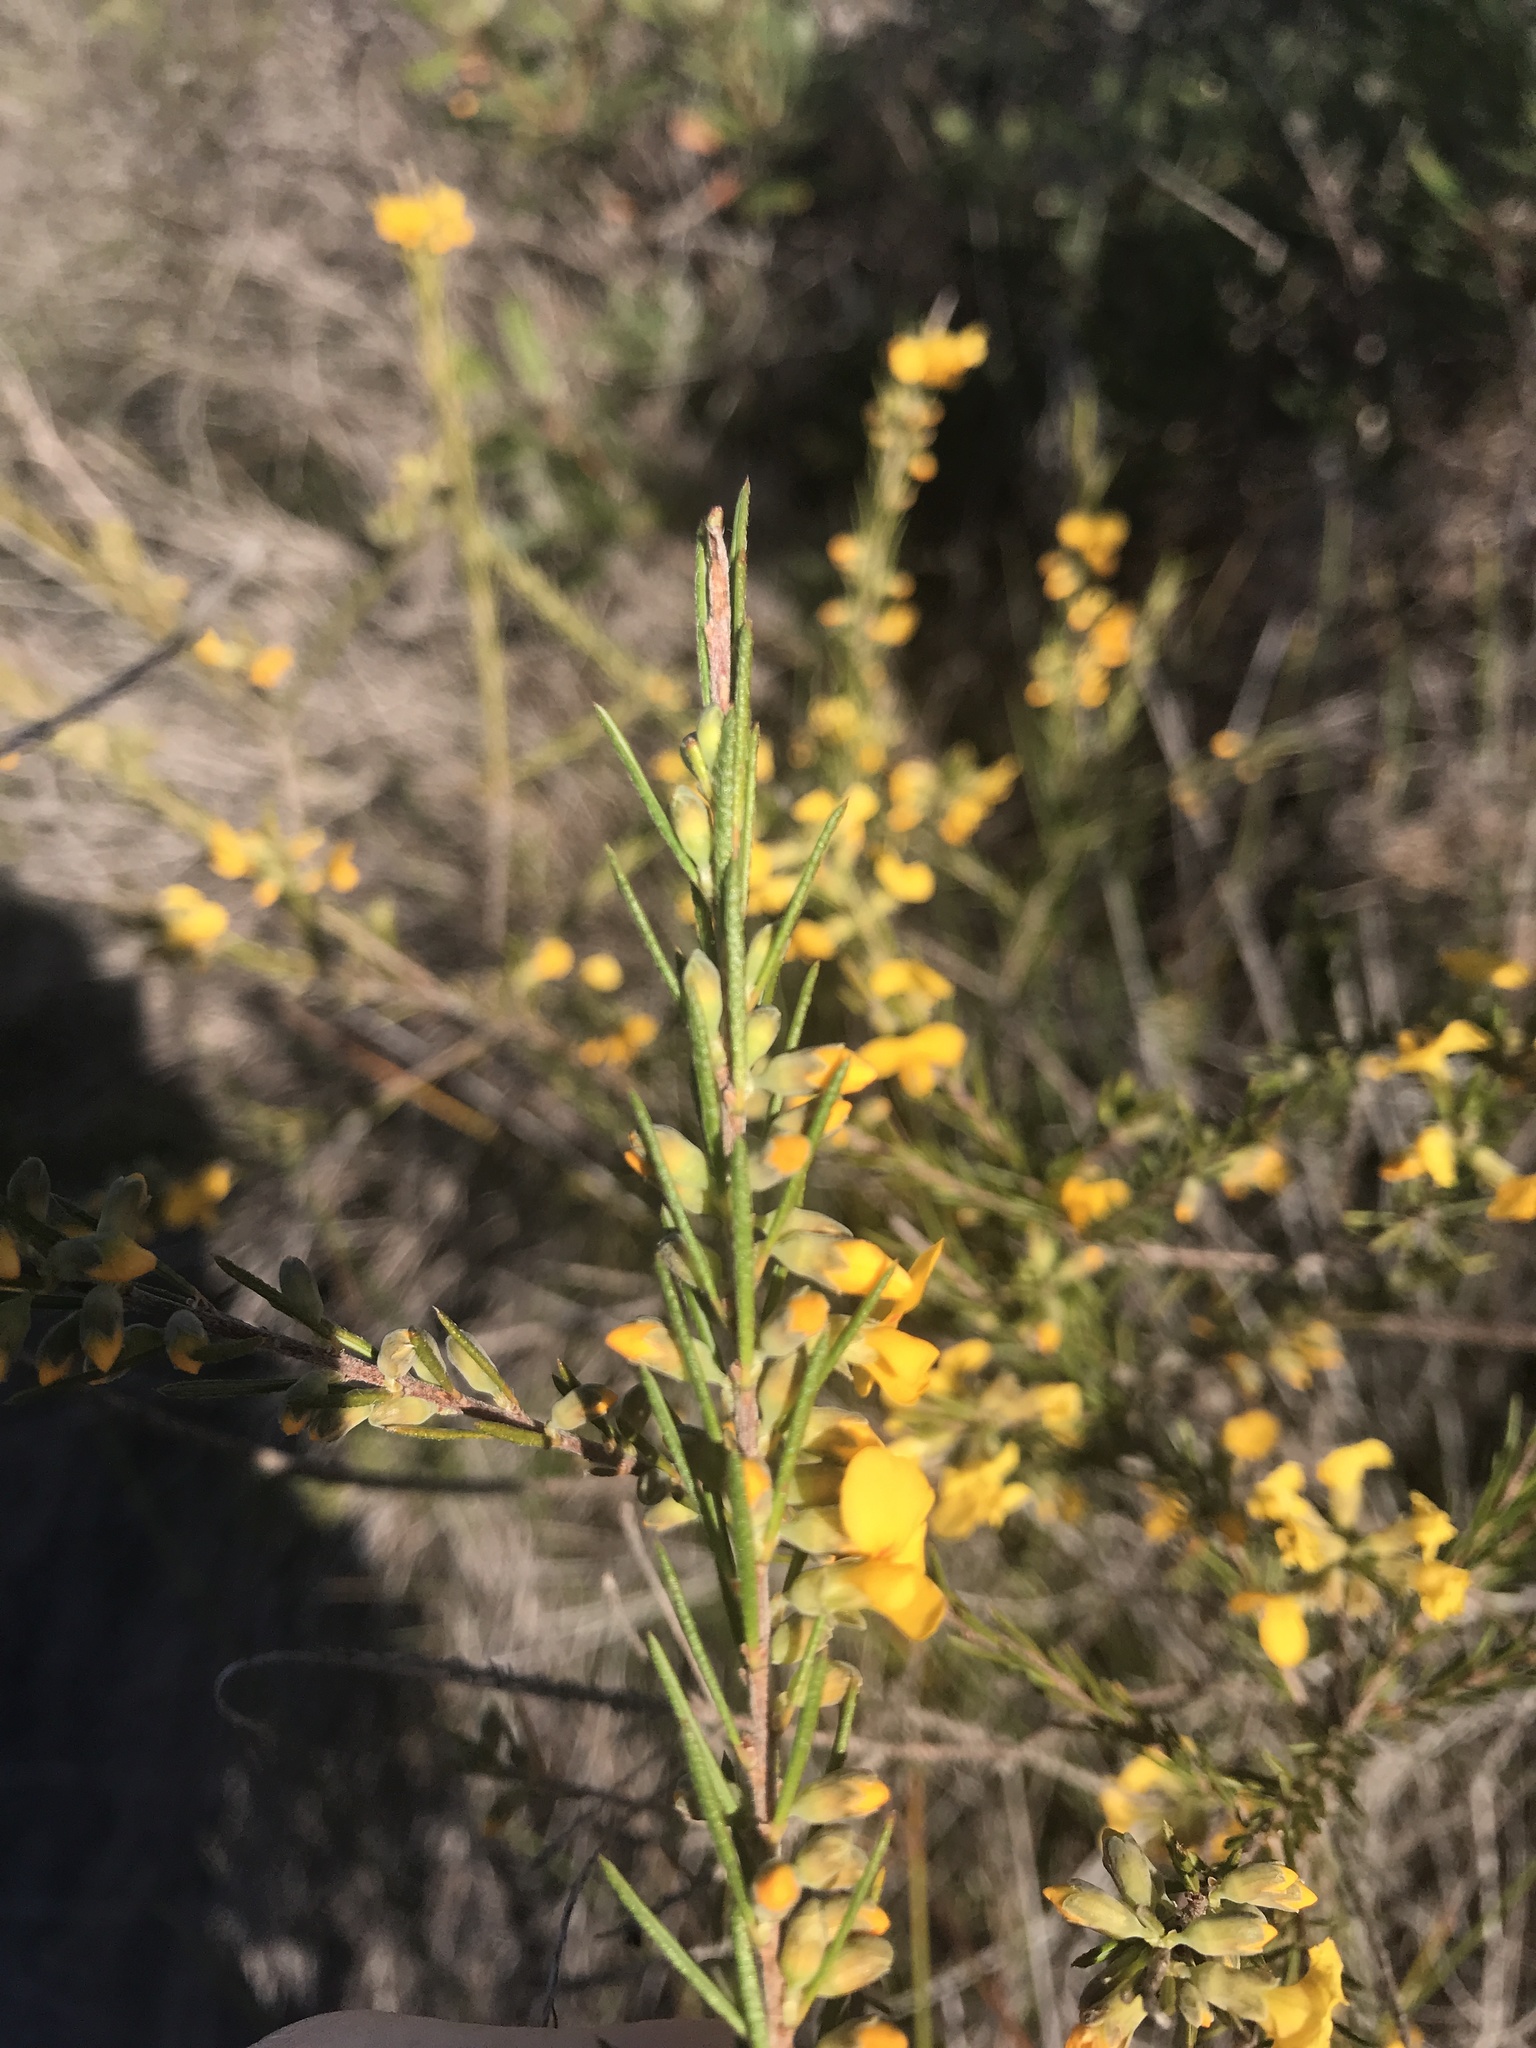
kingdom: Plantae
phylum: Tracheophyta
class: Magnoliopsida
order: Fabales
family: Fabaceae
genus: Dillwynia
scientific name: Dillwynia floribunda
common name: Eggs-and-bacon
